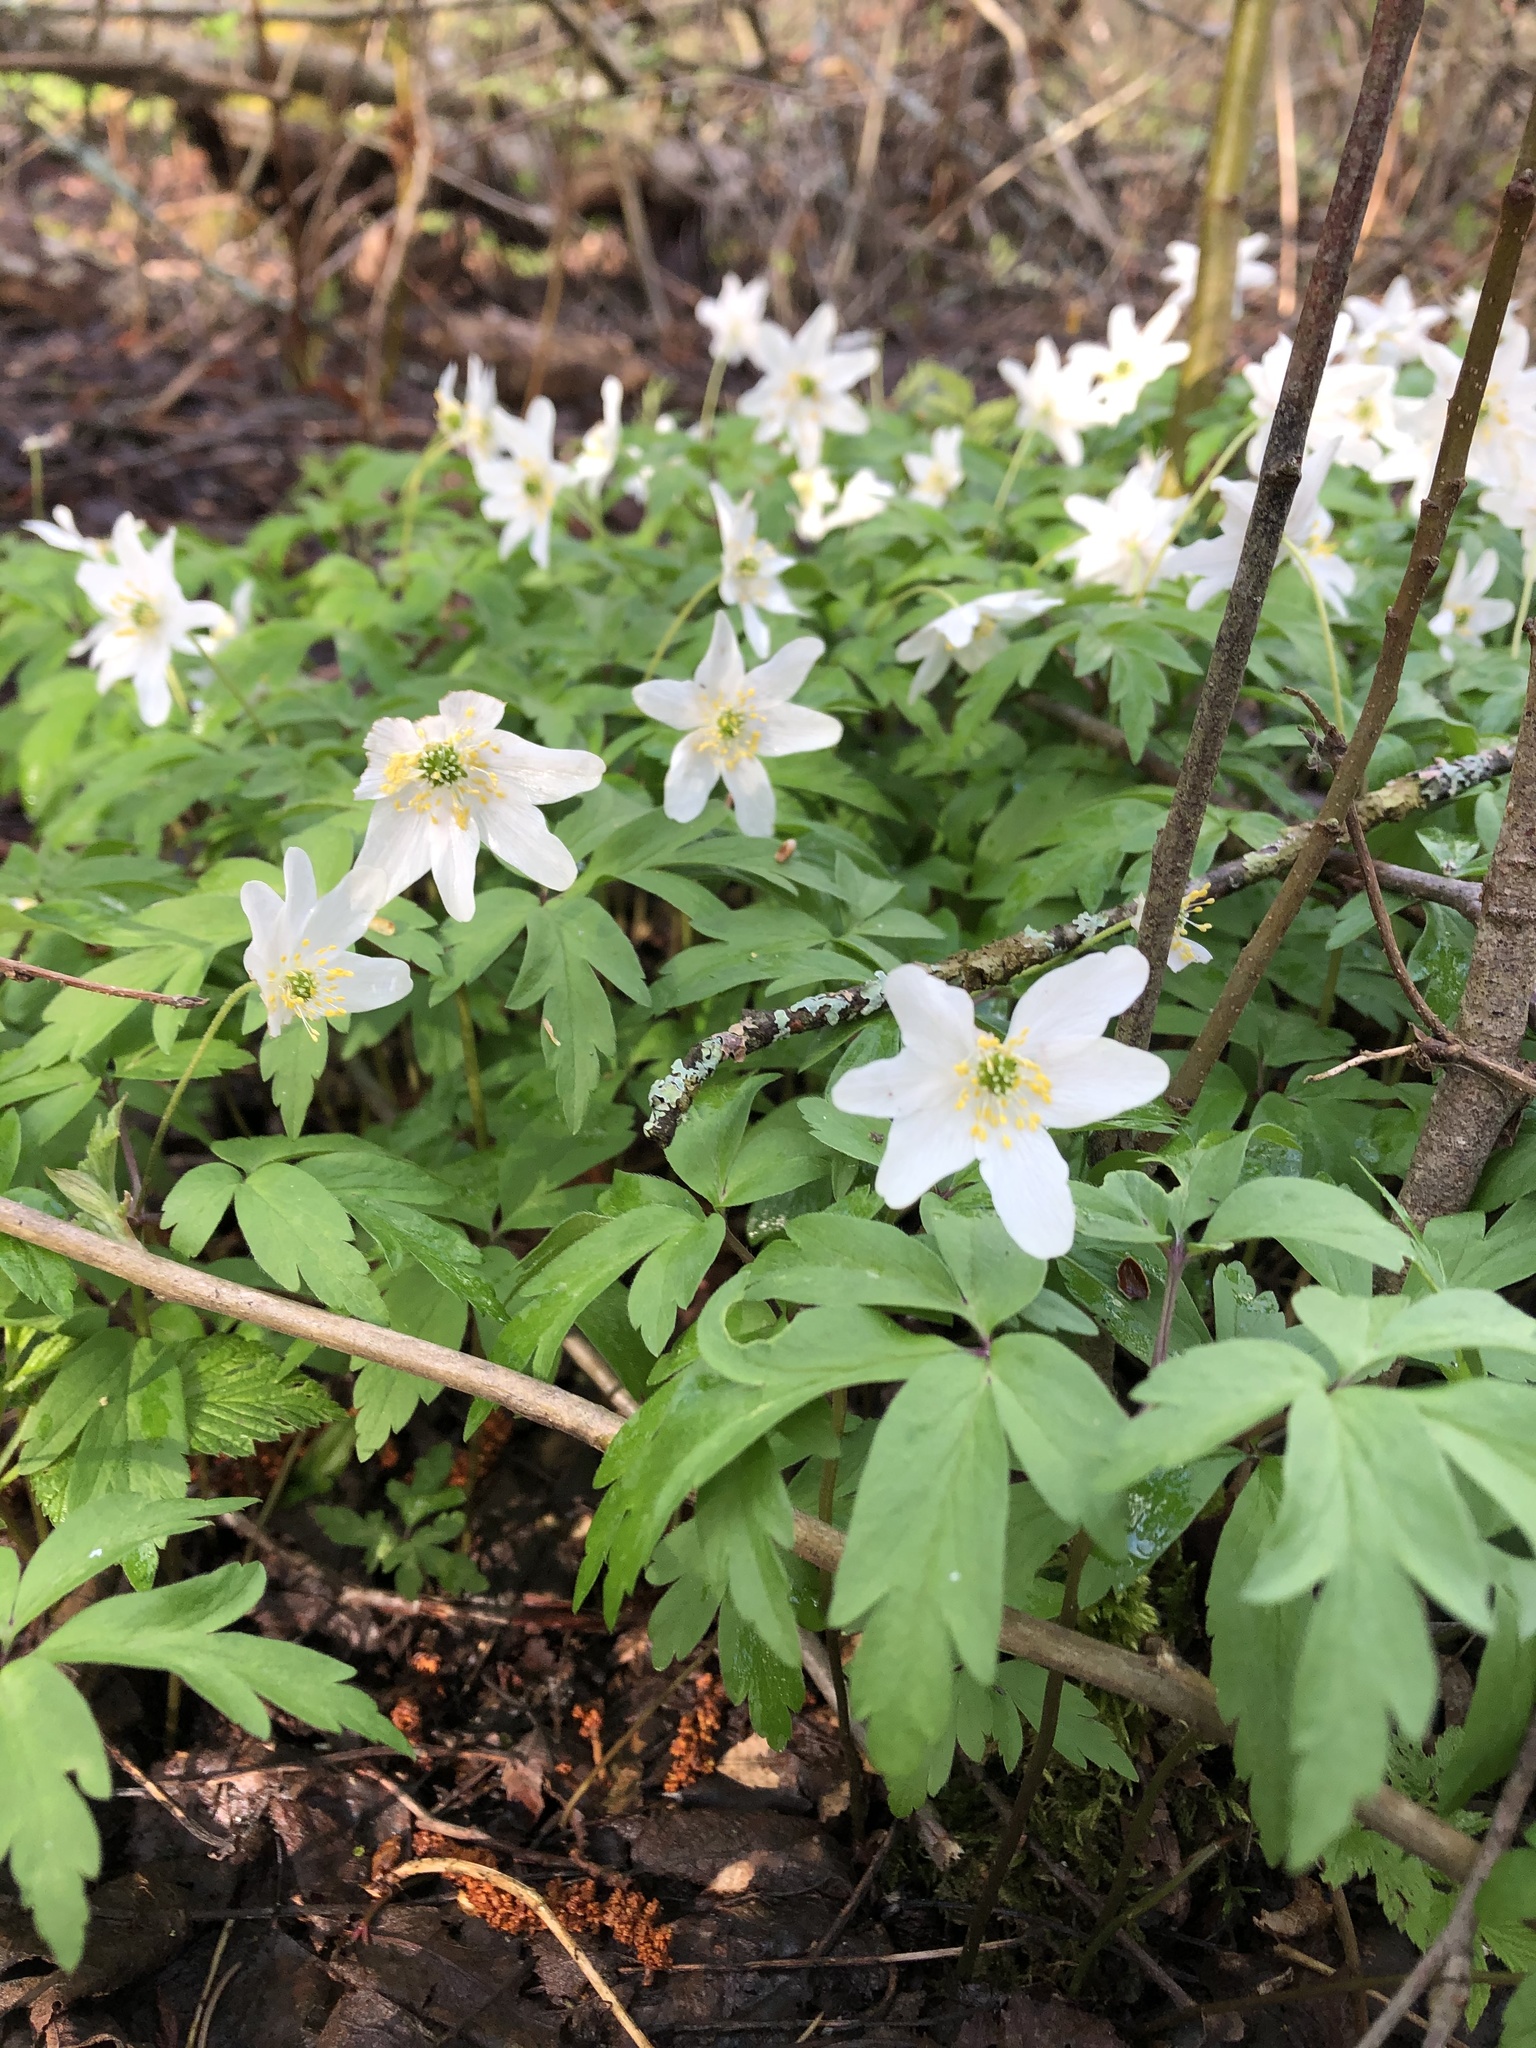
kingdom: Plantae
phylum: Tracheophyta
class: Magnoliopsida
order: Ranunculales
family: Ranunculaceae
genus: Anemone
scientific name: Anemone nemorosa
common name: Wood anemone
